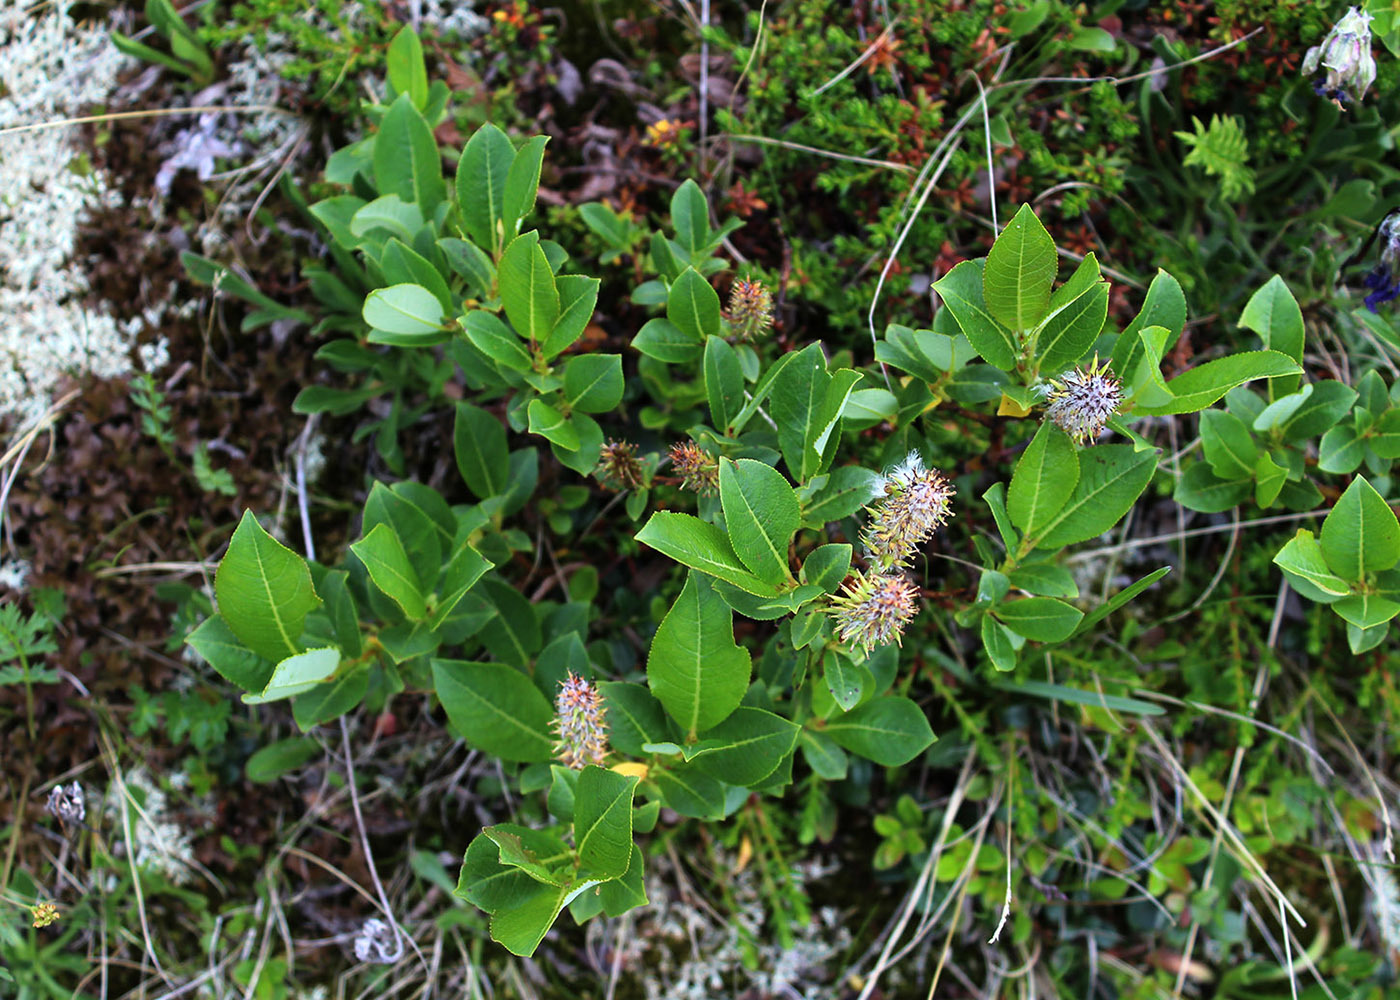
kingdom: Plantae
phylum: Tracheophyta
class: Magnoliopsida
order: Malpighiales
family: Salicaceae
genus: Salix
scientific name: Salix apoda
